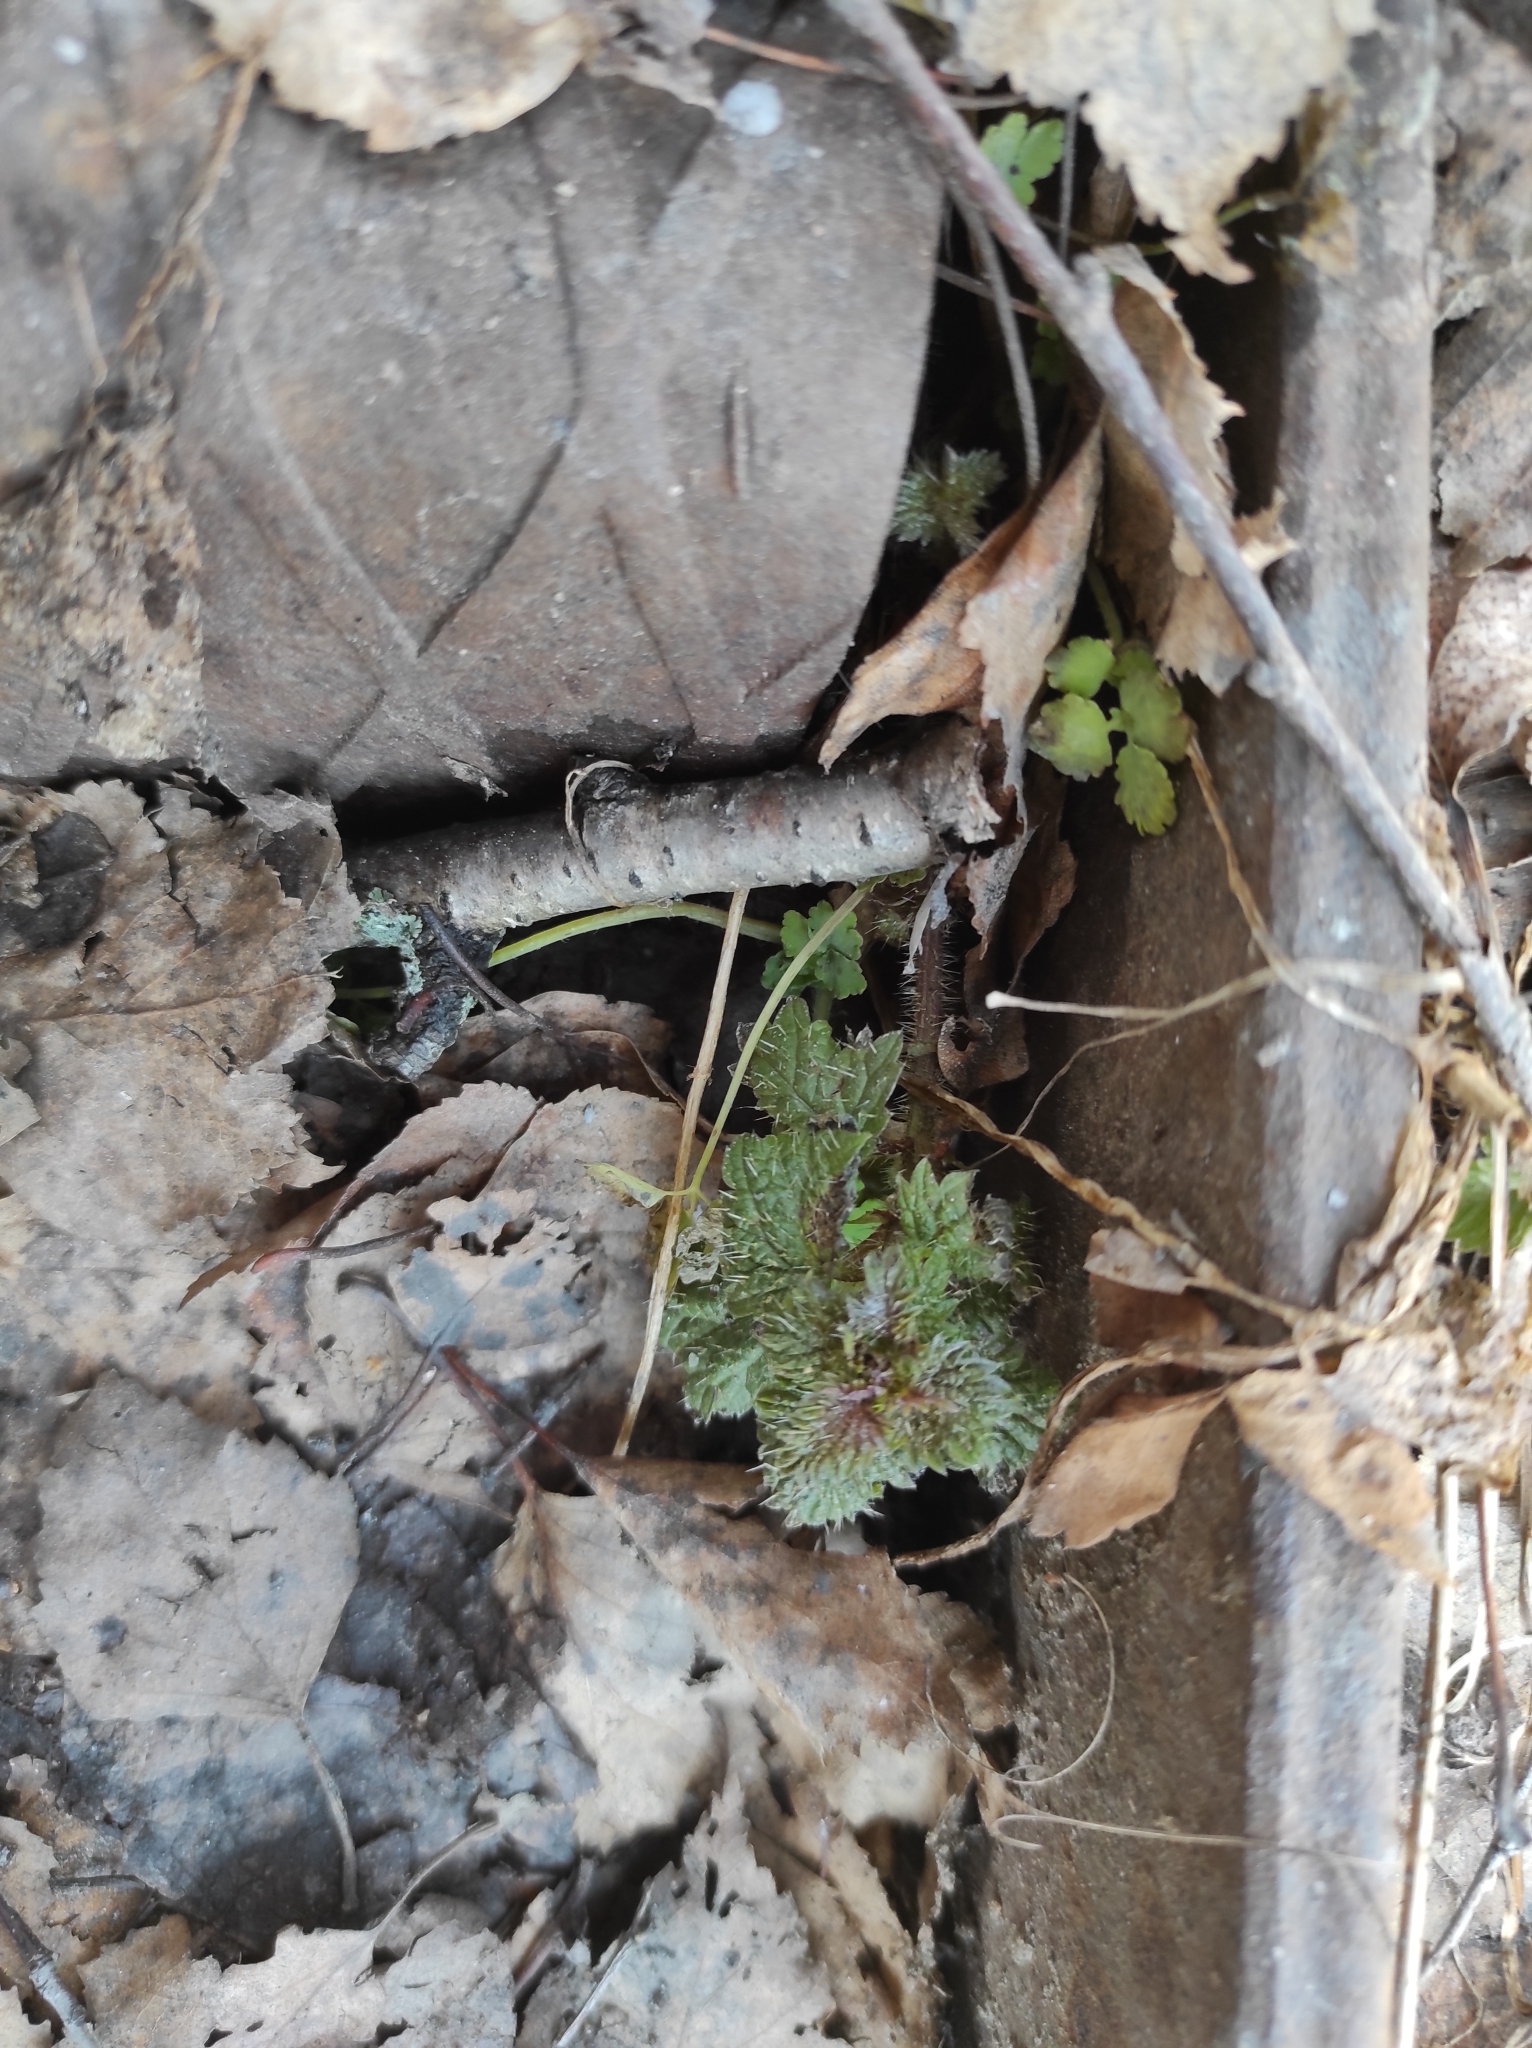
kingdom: Plantae
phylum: Tracheophyta
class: Magnoliopsida
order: Rosales
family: Urticaceae
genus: Urtica
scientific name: Urtica dioica
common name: Common nettle
